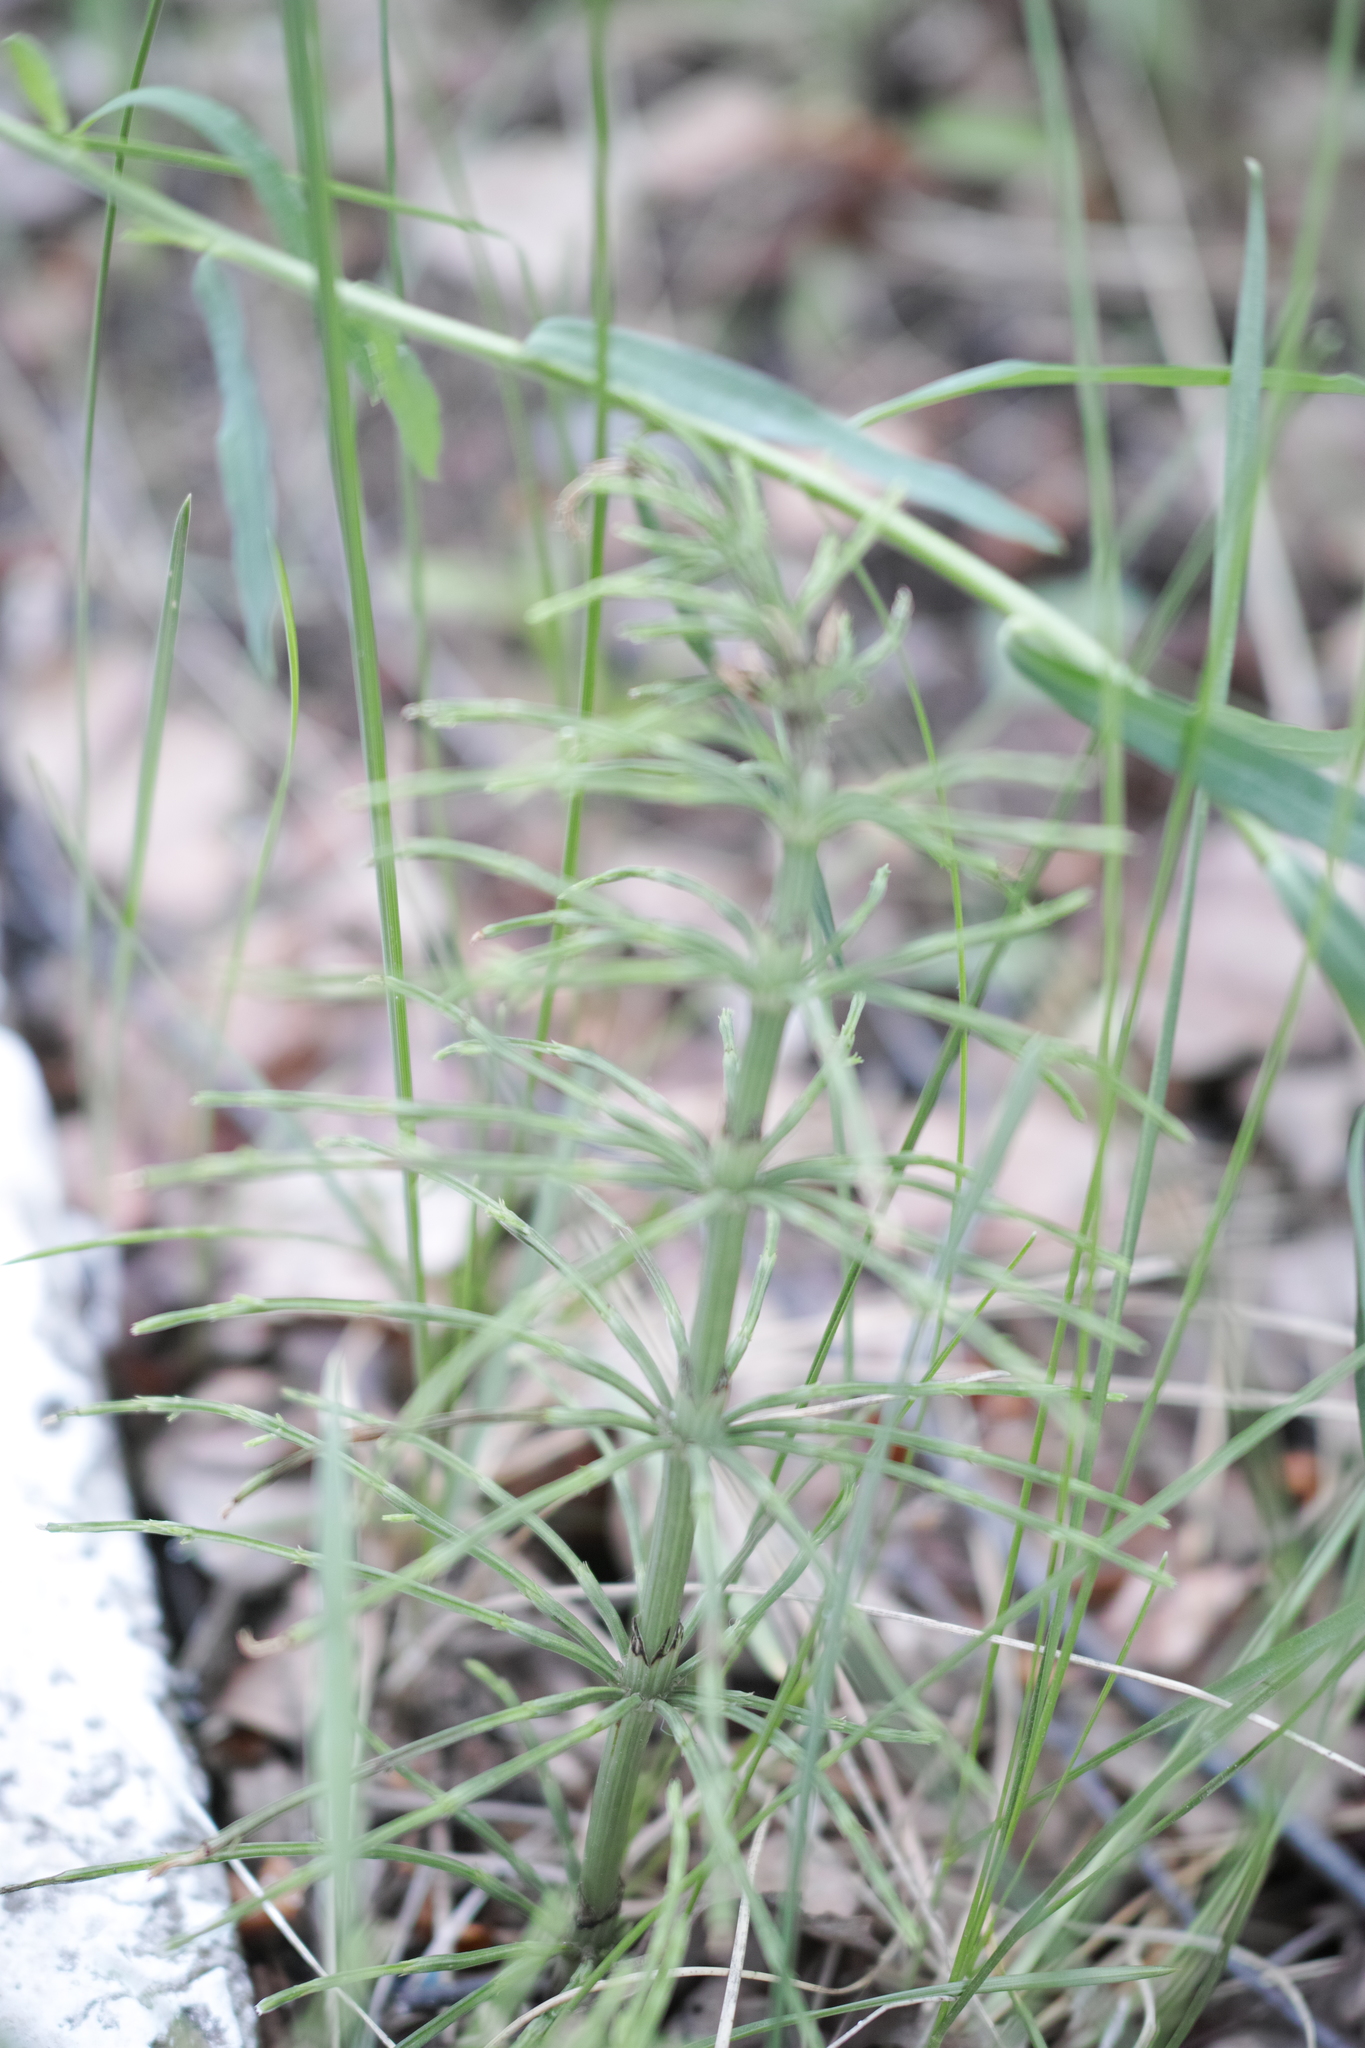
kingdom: Plantae
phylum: Tracheophyta
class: Polypodiopsida
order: Equisetales
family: Equisetaceae
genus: Equisetum
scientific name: Equisetum arvense
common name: Field horsetail
